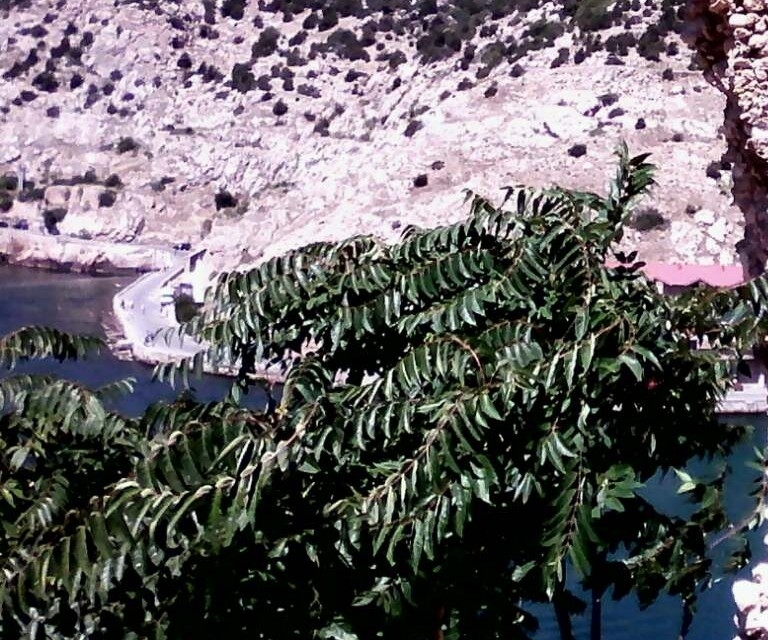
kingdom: Plantae
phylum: Tracheophyta
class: Magnoliopsida
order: Sapindales
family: Simaroubaceae
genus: Ailanthus
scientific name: Ailanthus altissima
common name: Tree-of-heaven
